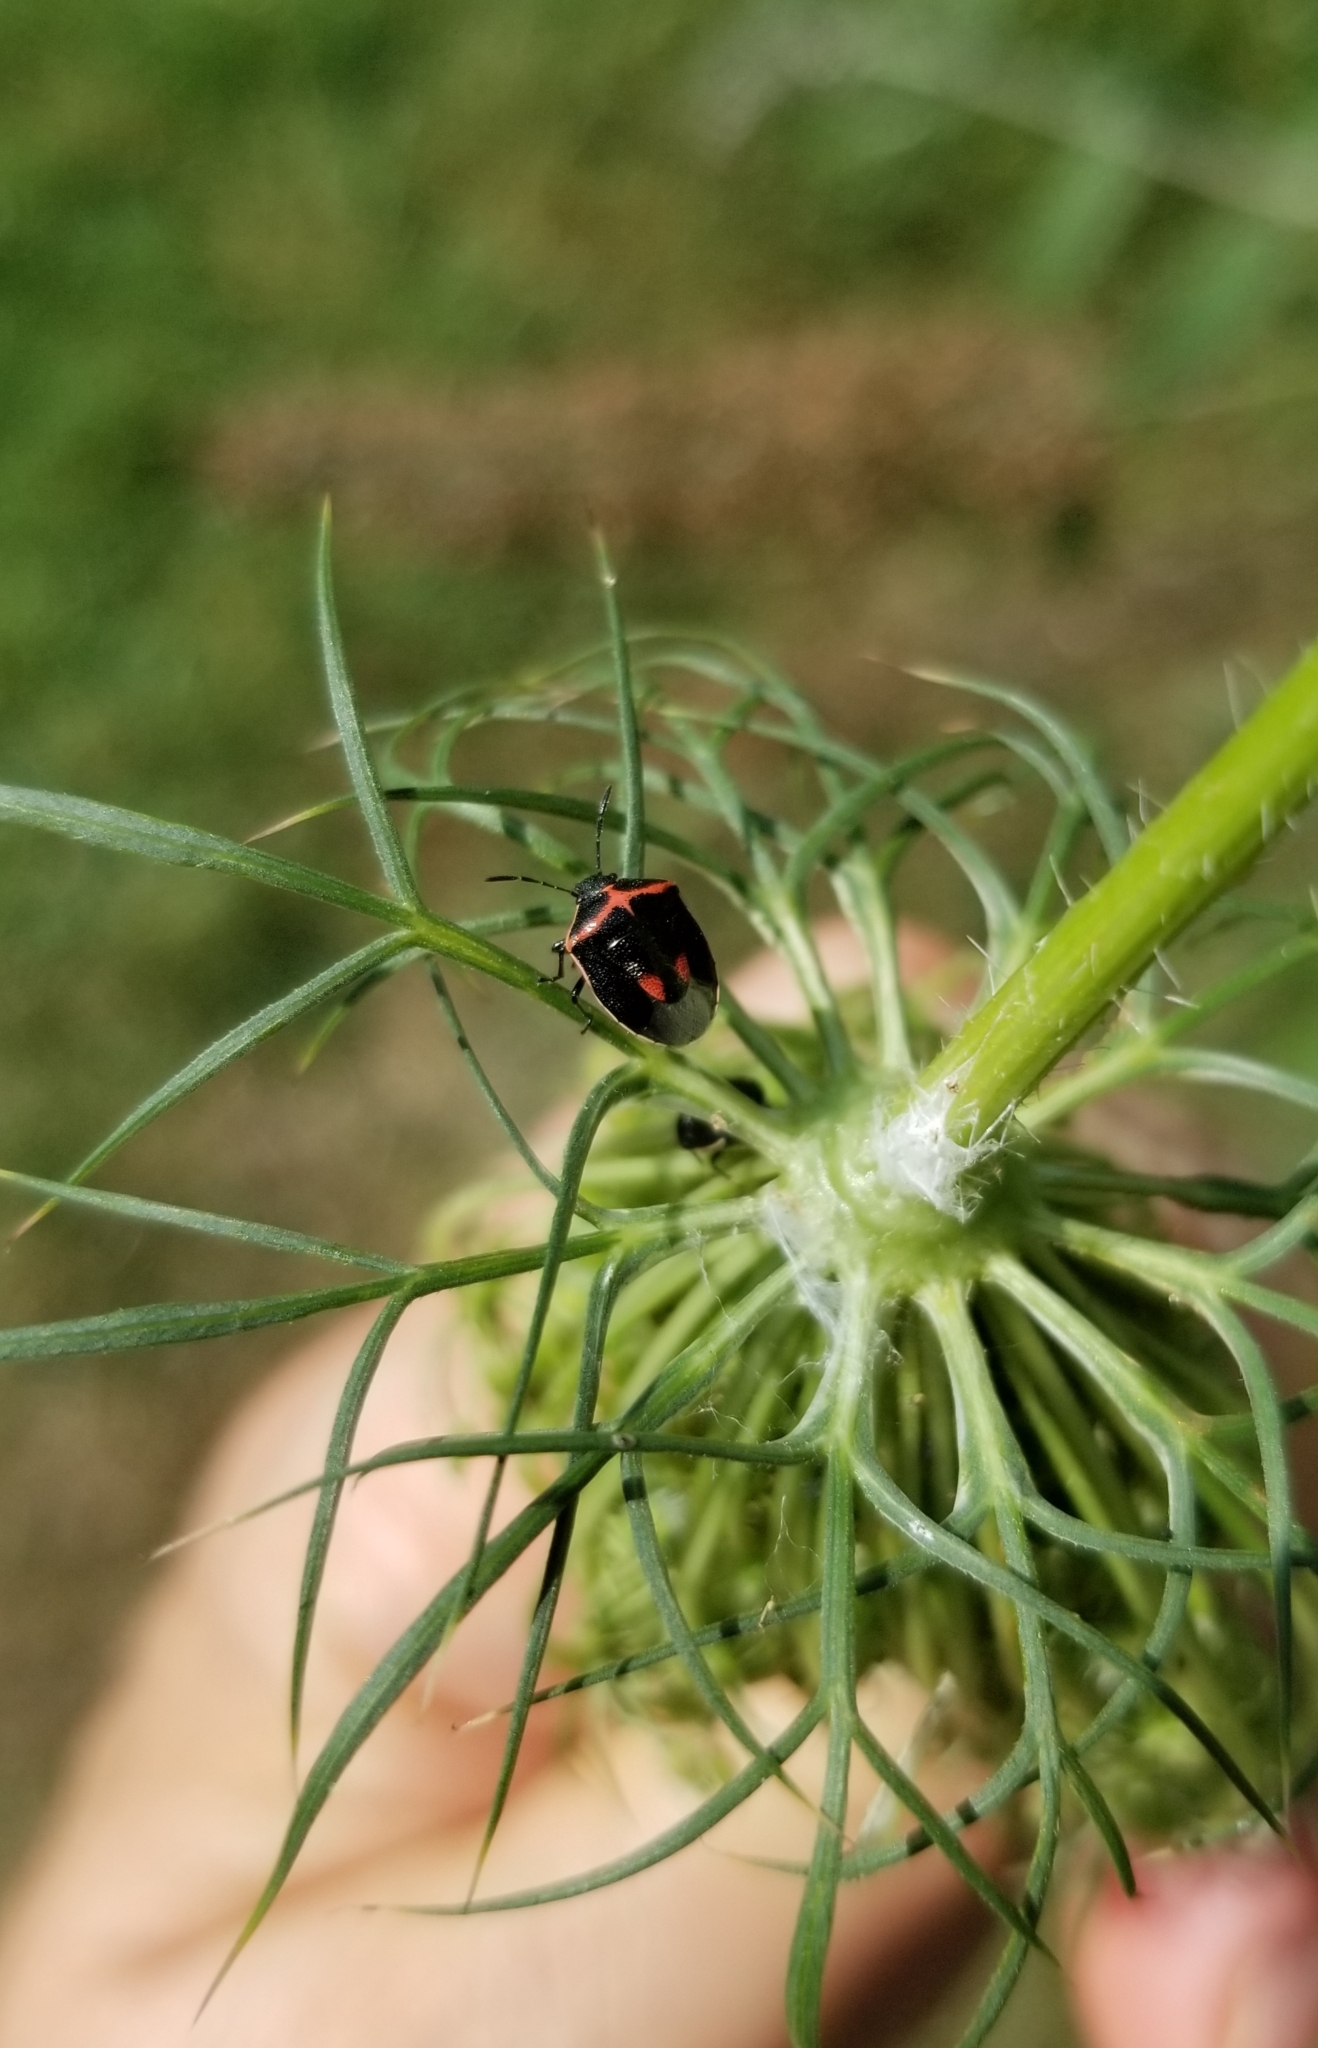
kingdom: Animalia
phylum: Arthropoda
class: Insecta
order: Hemiptera
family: Pentatomidae
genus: Cosmopepla
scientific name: Cosmopepla lintneriana
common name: Twice-stabbed stink bug
